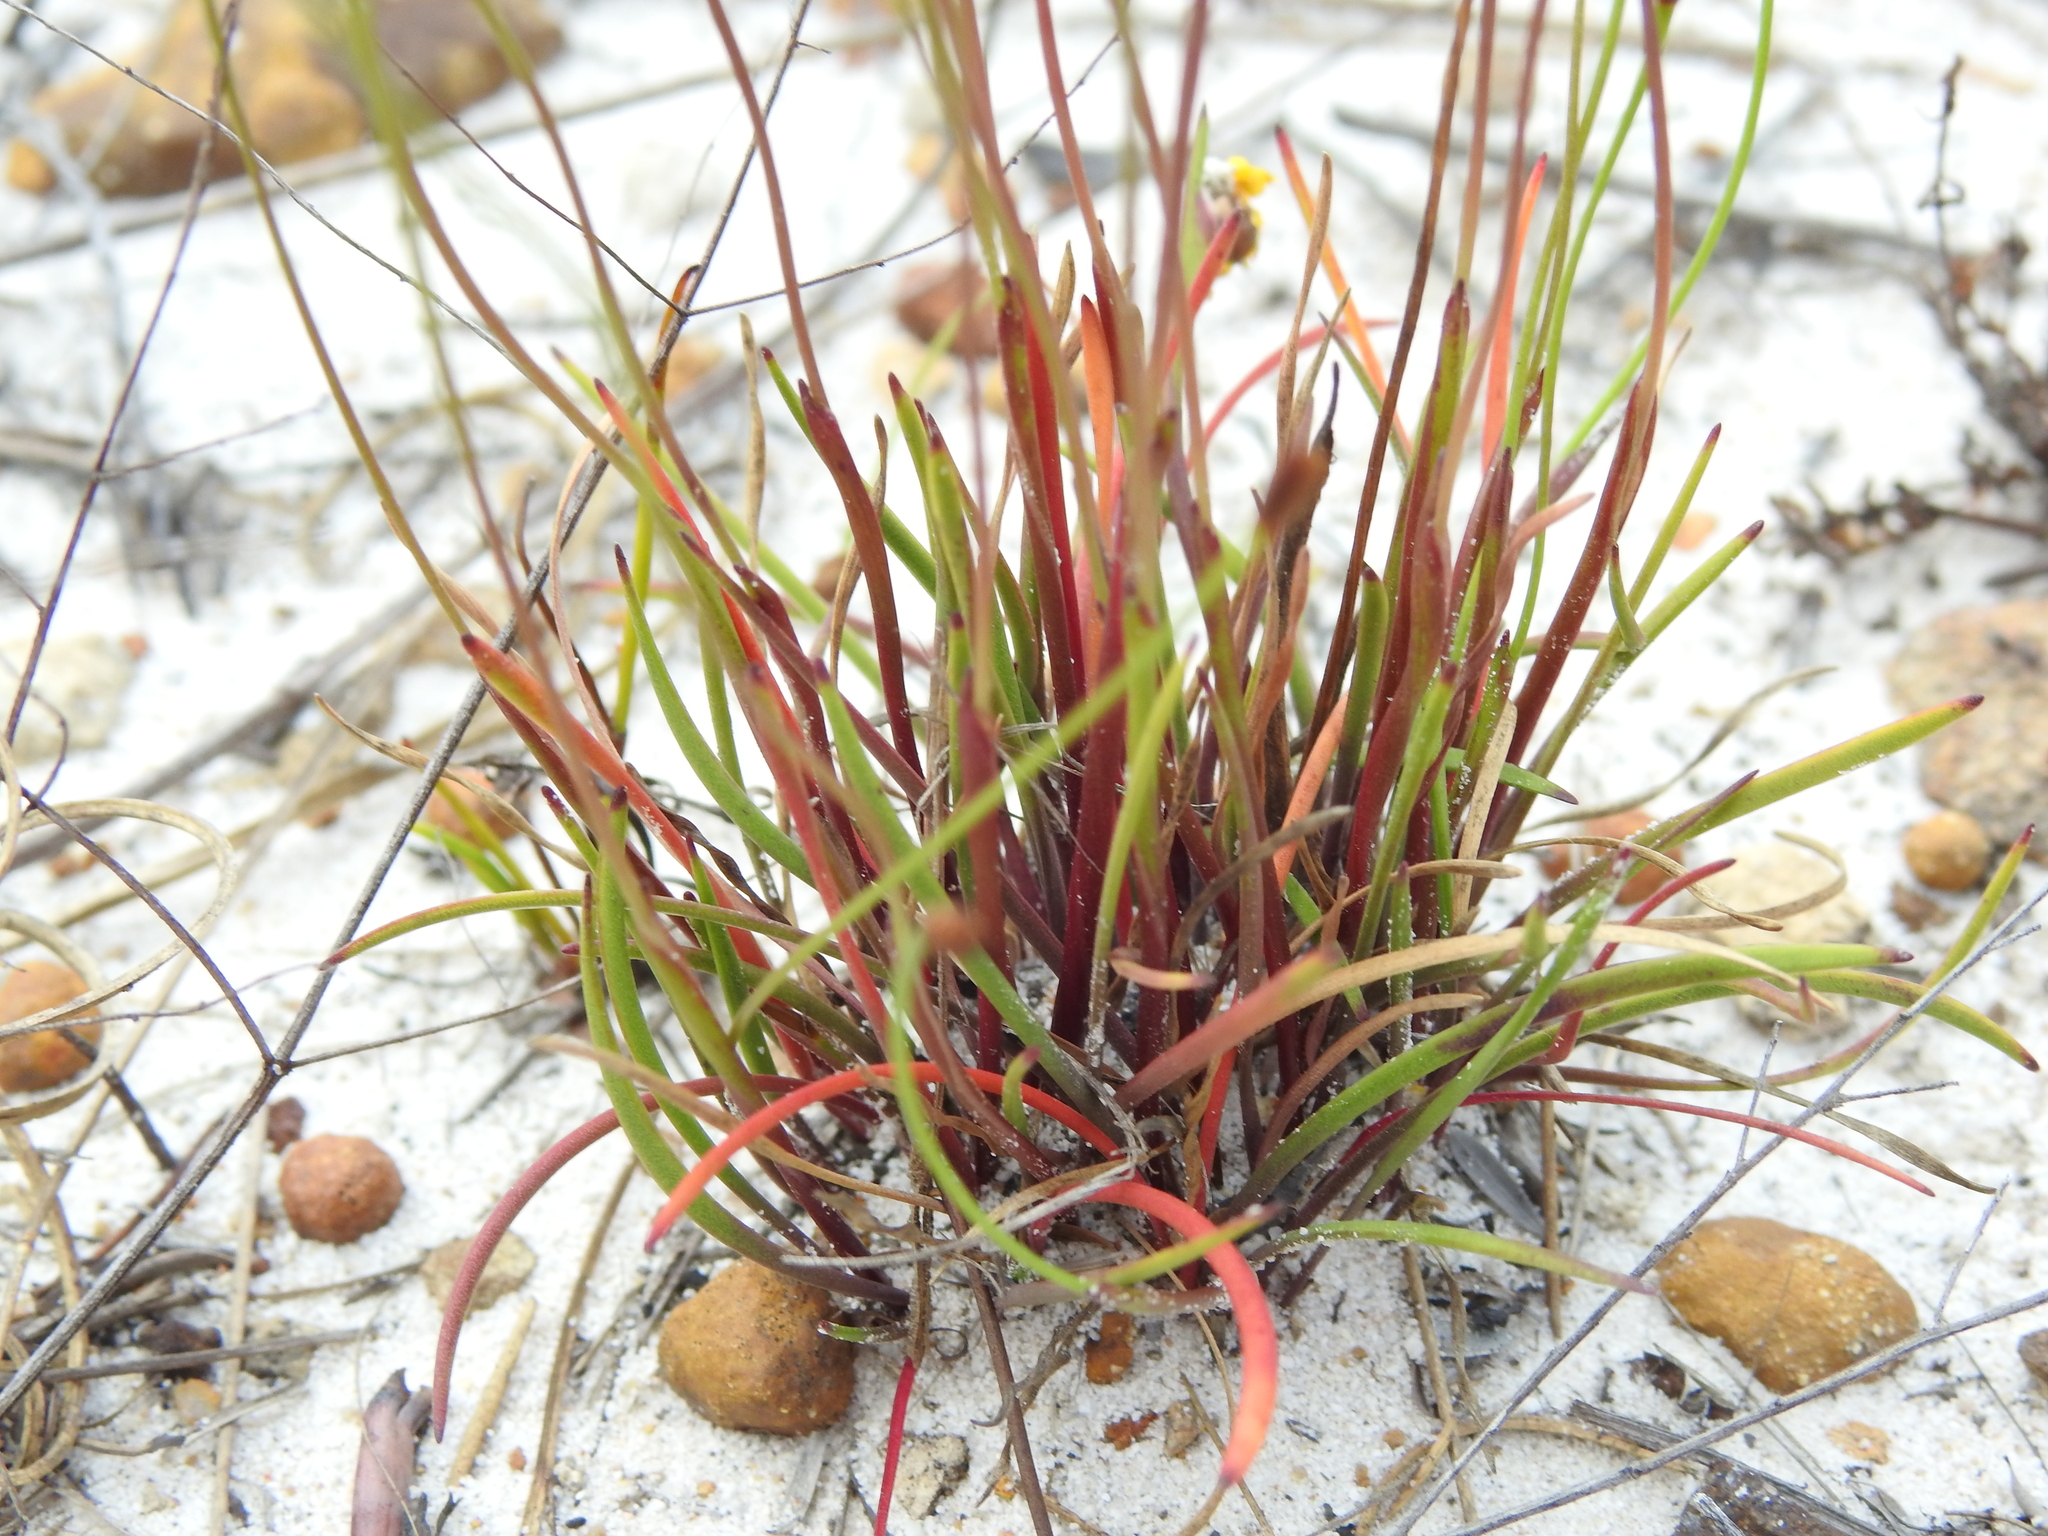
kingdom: Plantae
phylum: Tracheophyta
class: Liliopsida
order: Poales
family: Xyridaceae
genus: Xyris
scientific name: Xyris juncea
